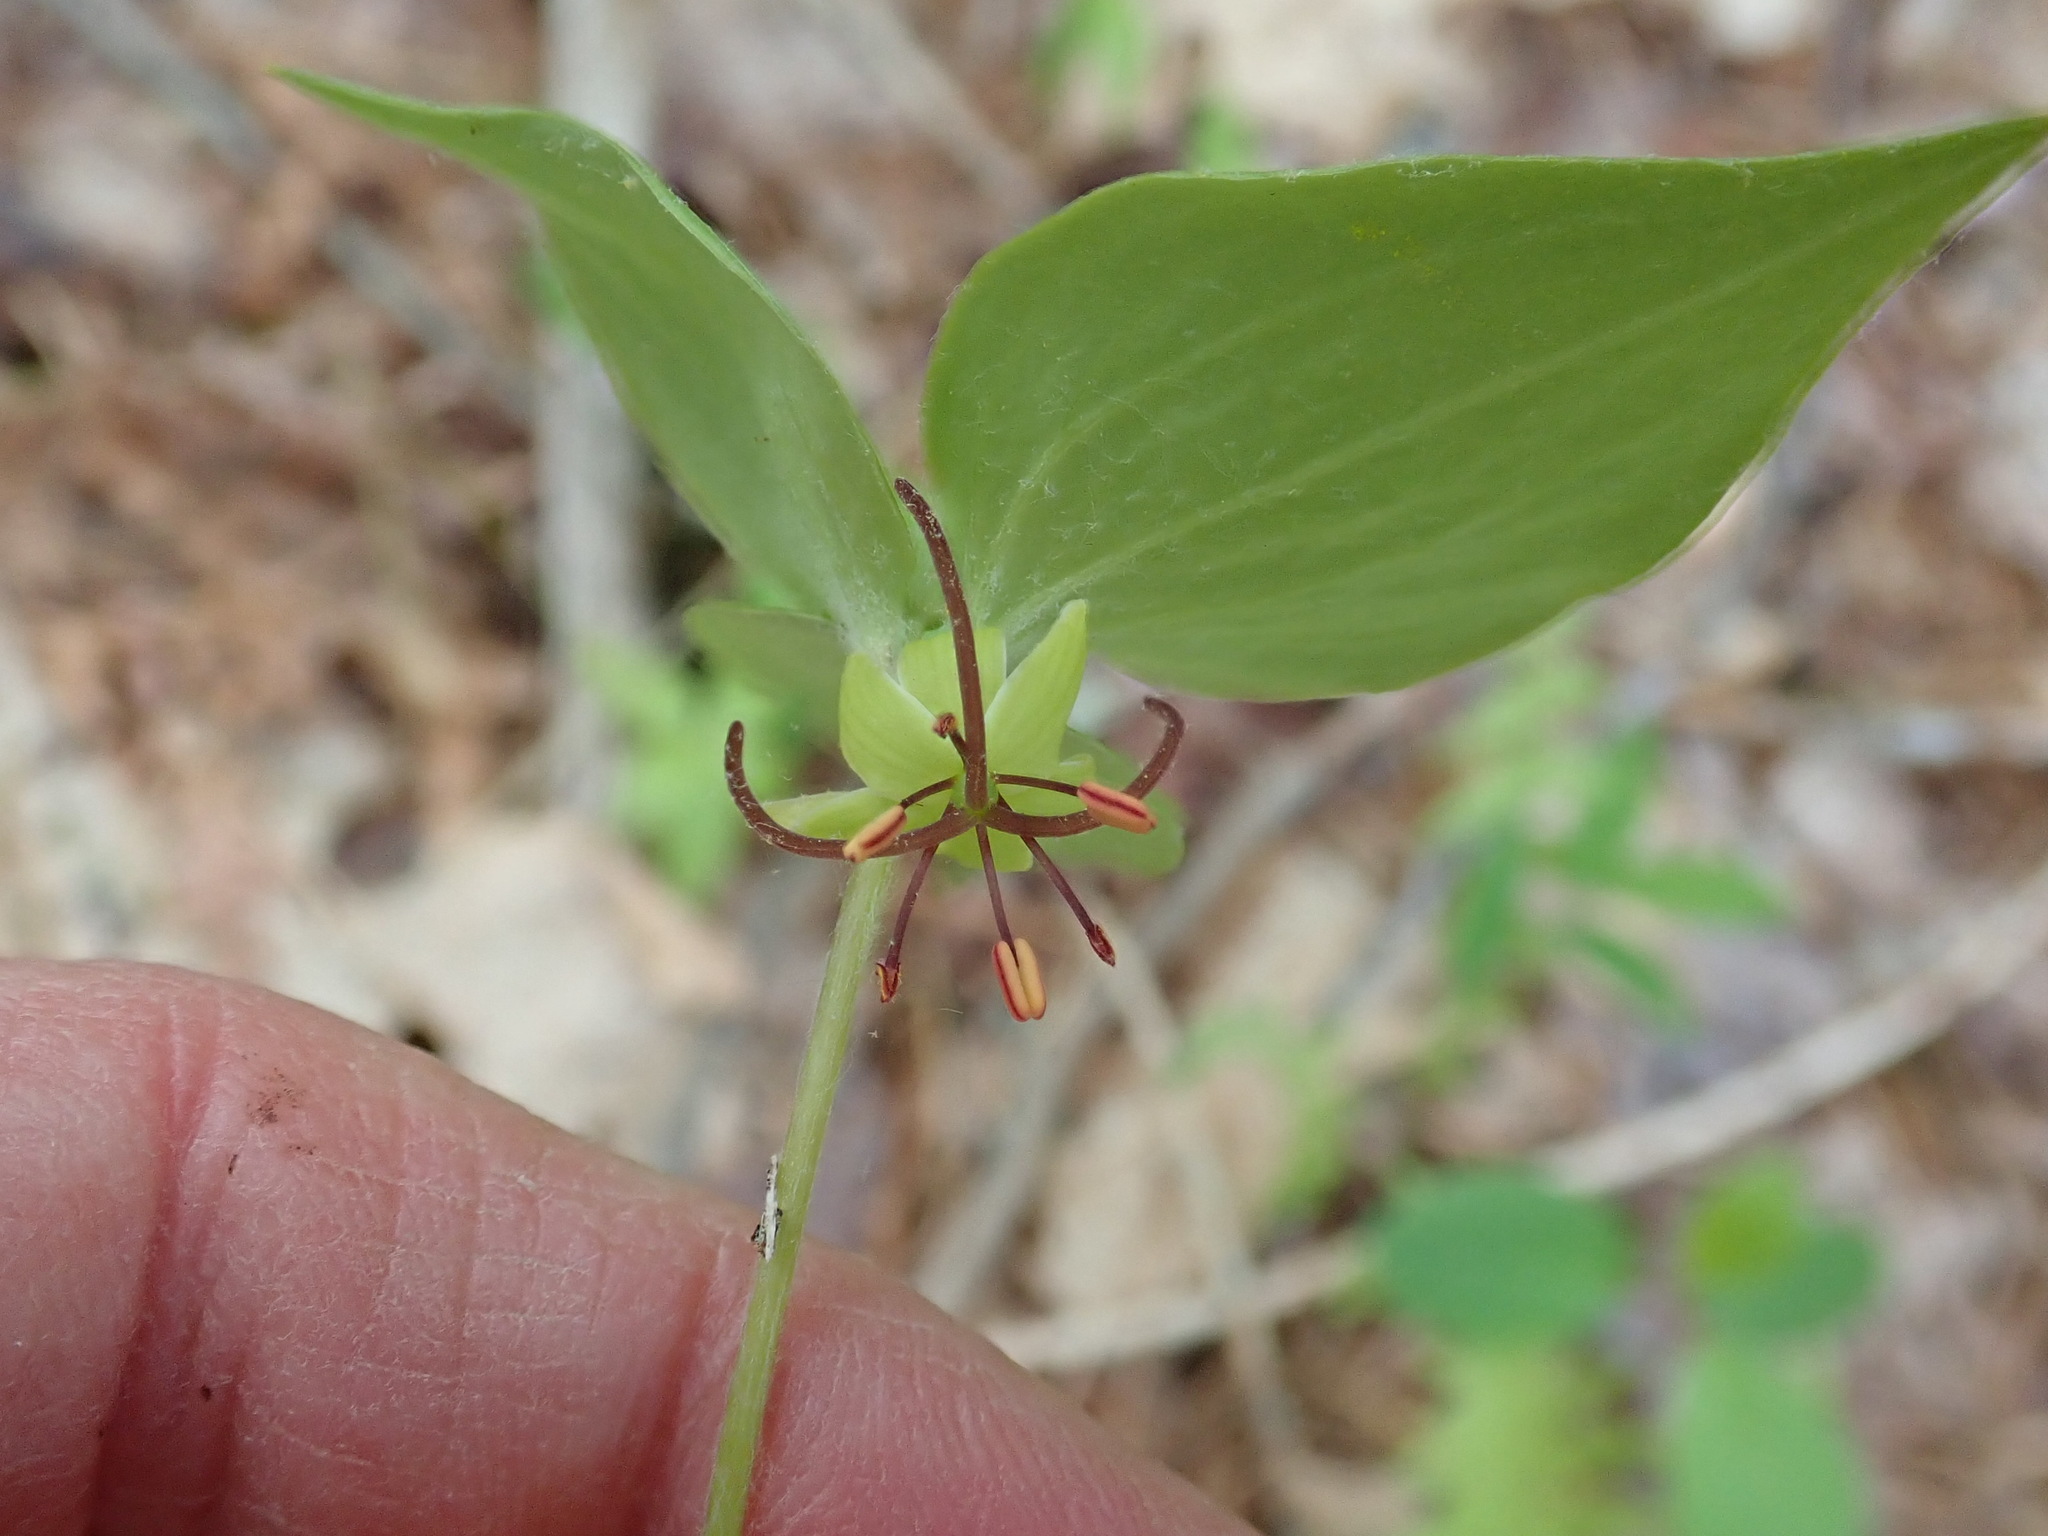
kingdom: Plantae
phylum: Tracheophyta
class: Liliopsida
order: Liliales
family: Liliaceae
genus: Medeola
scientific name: Medeola virginiana
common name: Indian cucumber-root
